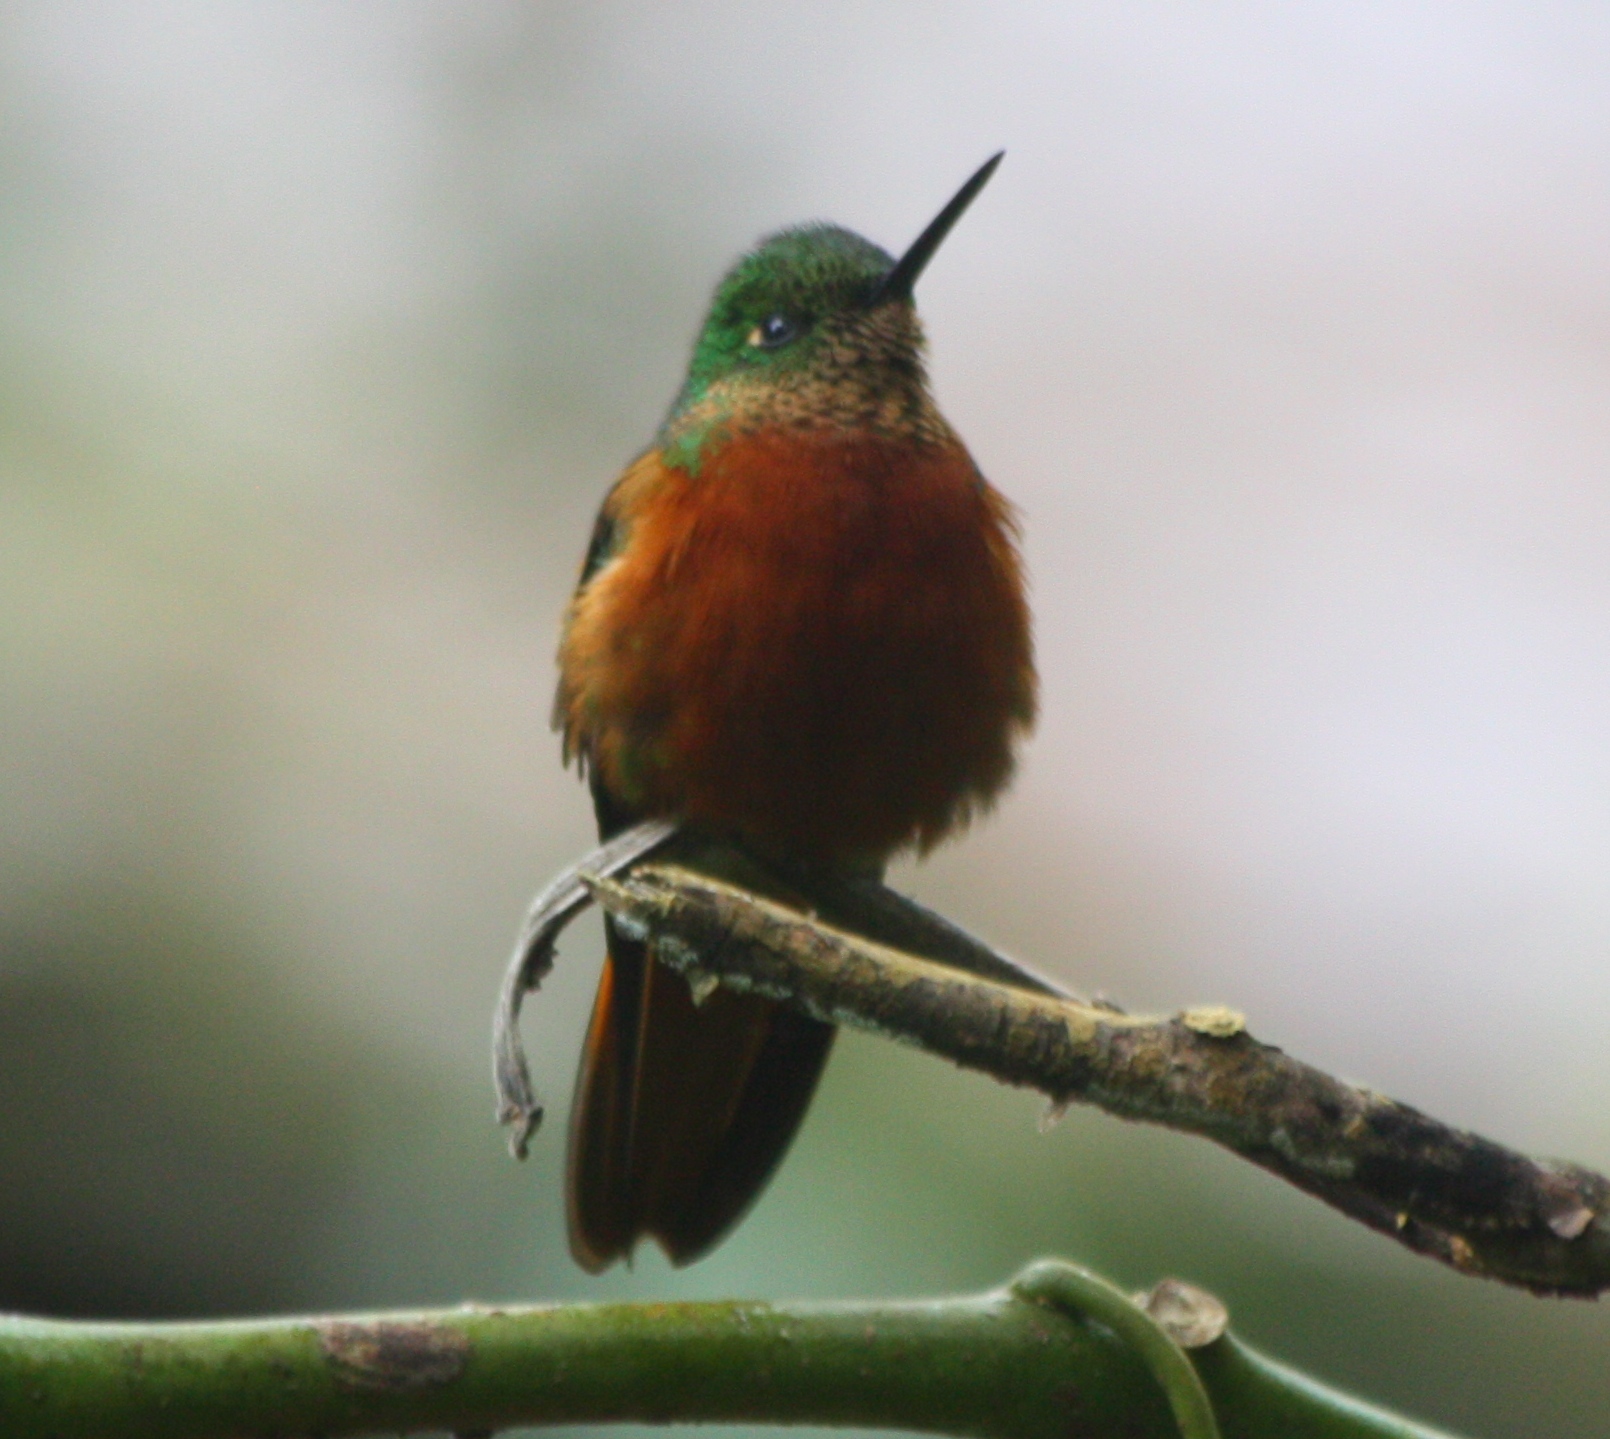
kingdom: Animalia
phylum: Chordata
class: Aves
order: Apodiformes
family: Trochilidae
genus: Boissonneaua
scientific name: Boissonneaua matthewsii
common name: Chestnut-breasted coronet
